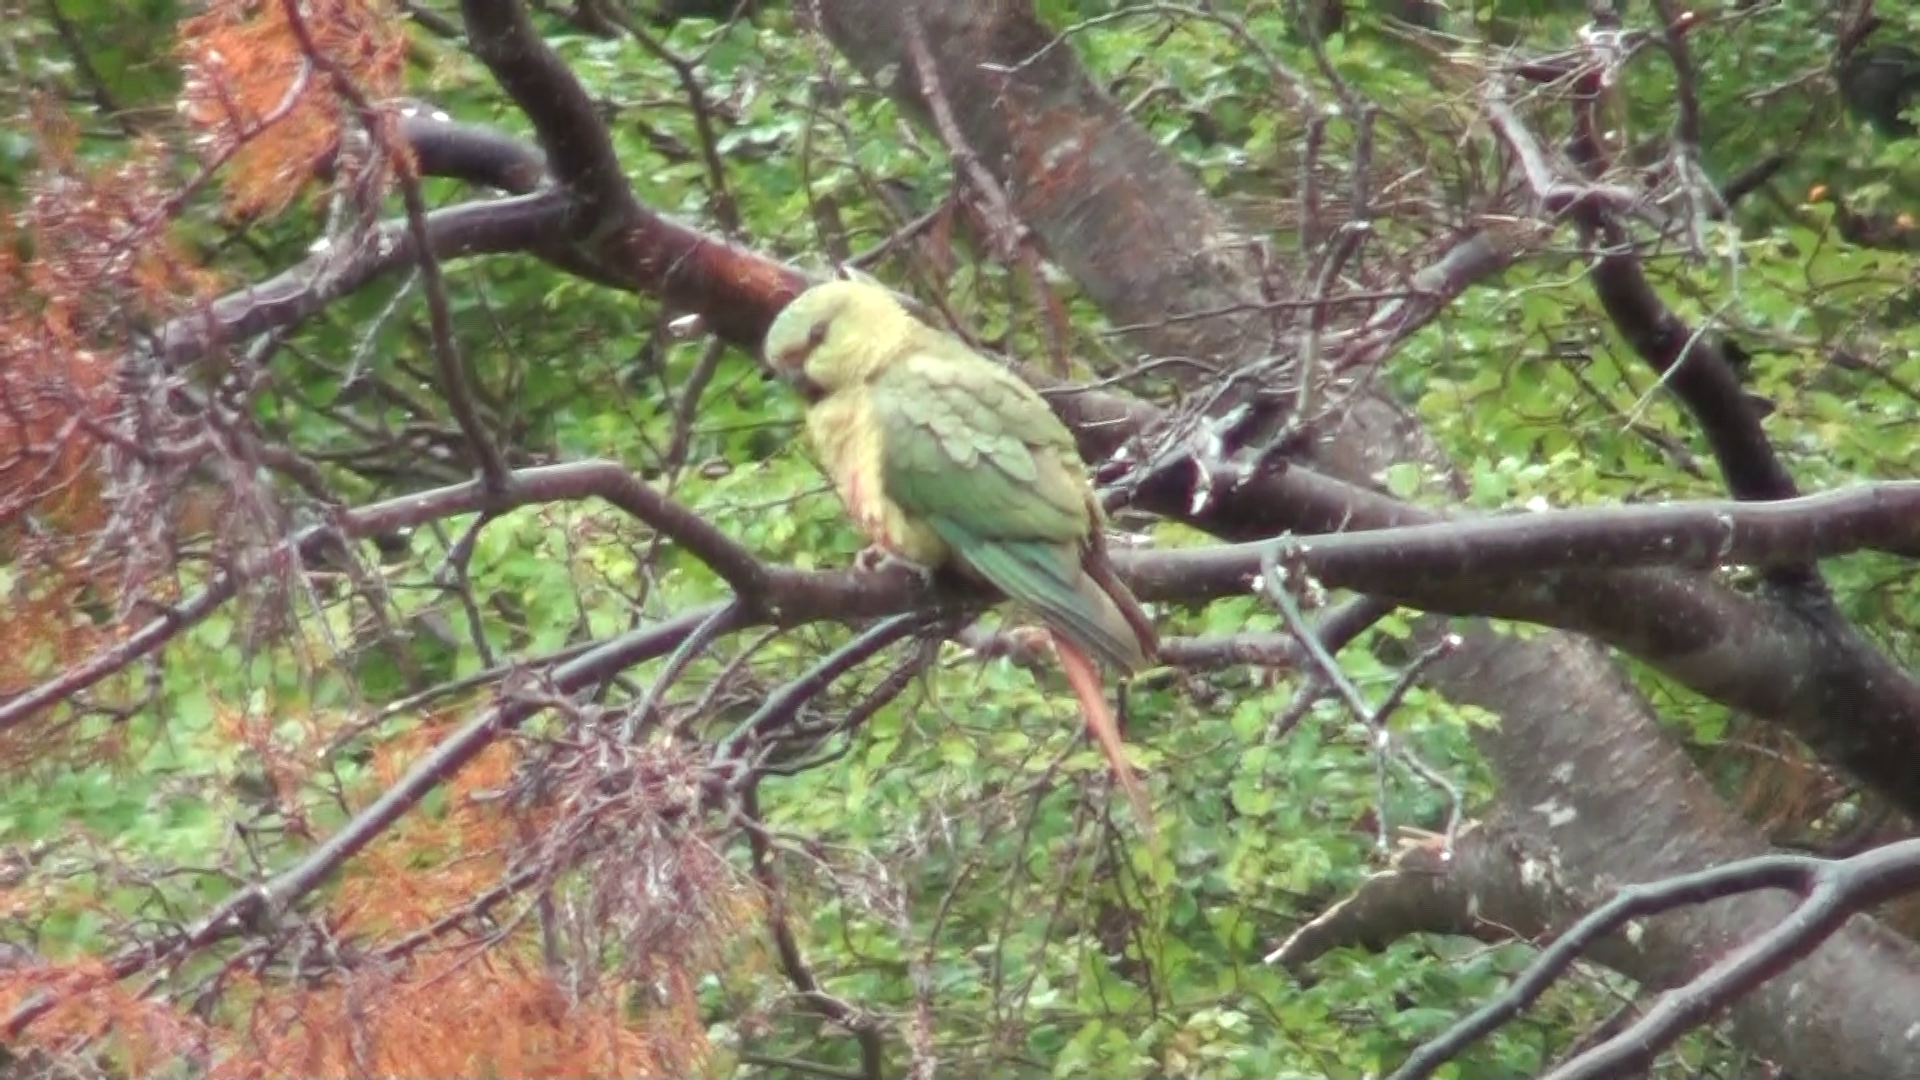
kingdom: Animalia
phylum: Chordata
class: Aves
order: Psittaciformes
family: Psittacidae
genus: Enicognathus
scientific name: Enicognathus ferrugineus
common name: Austral parakeet
